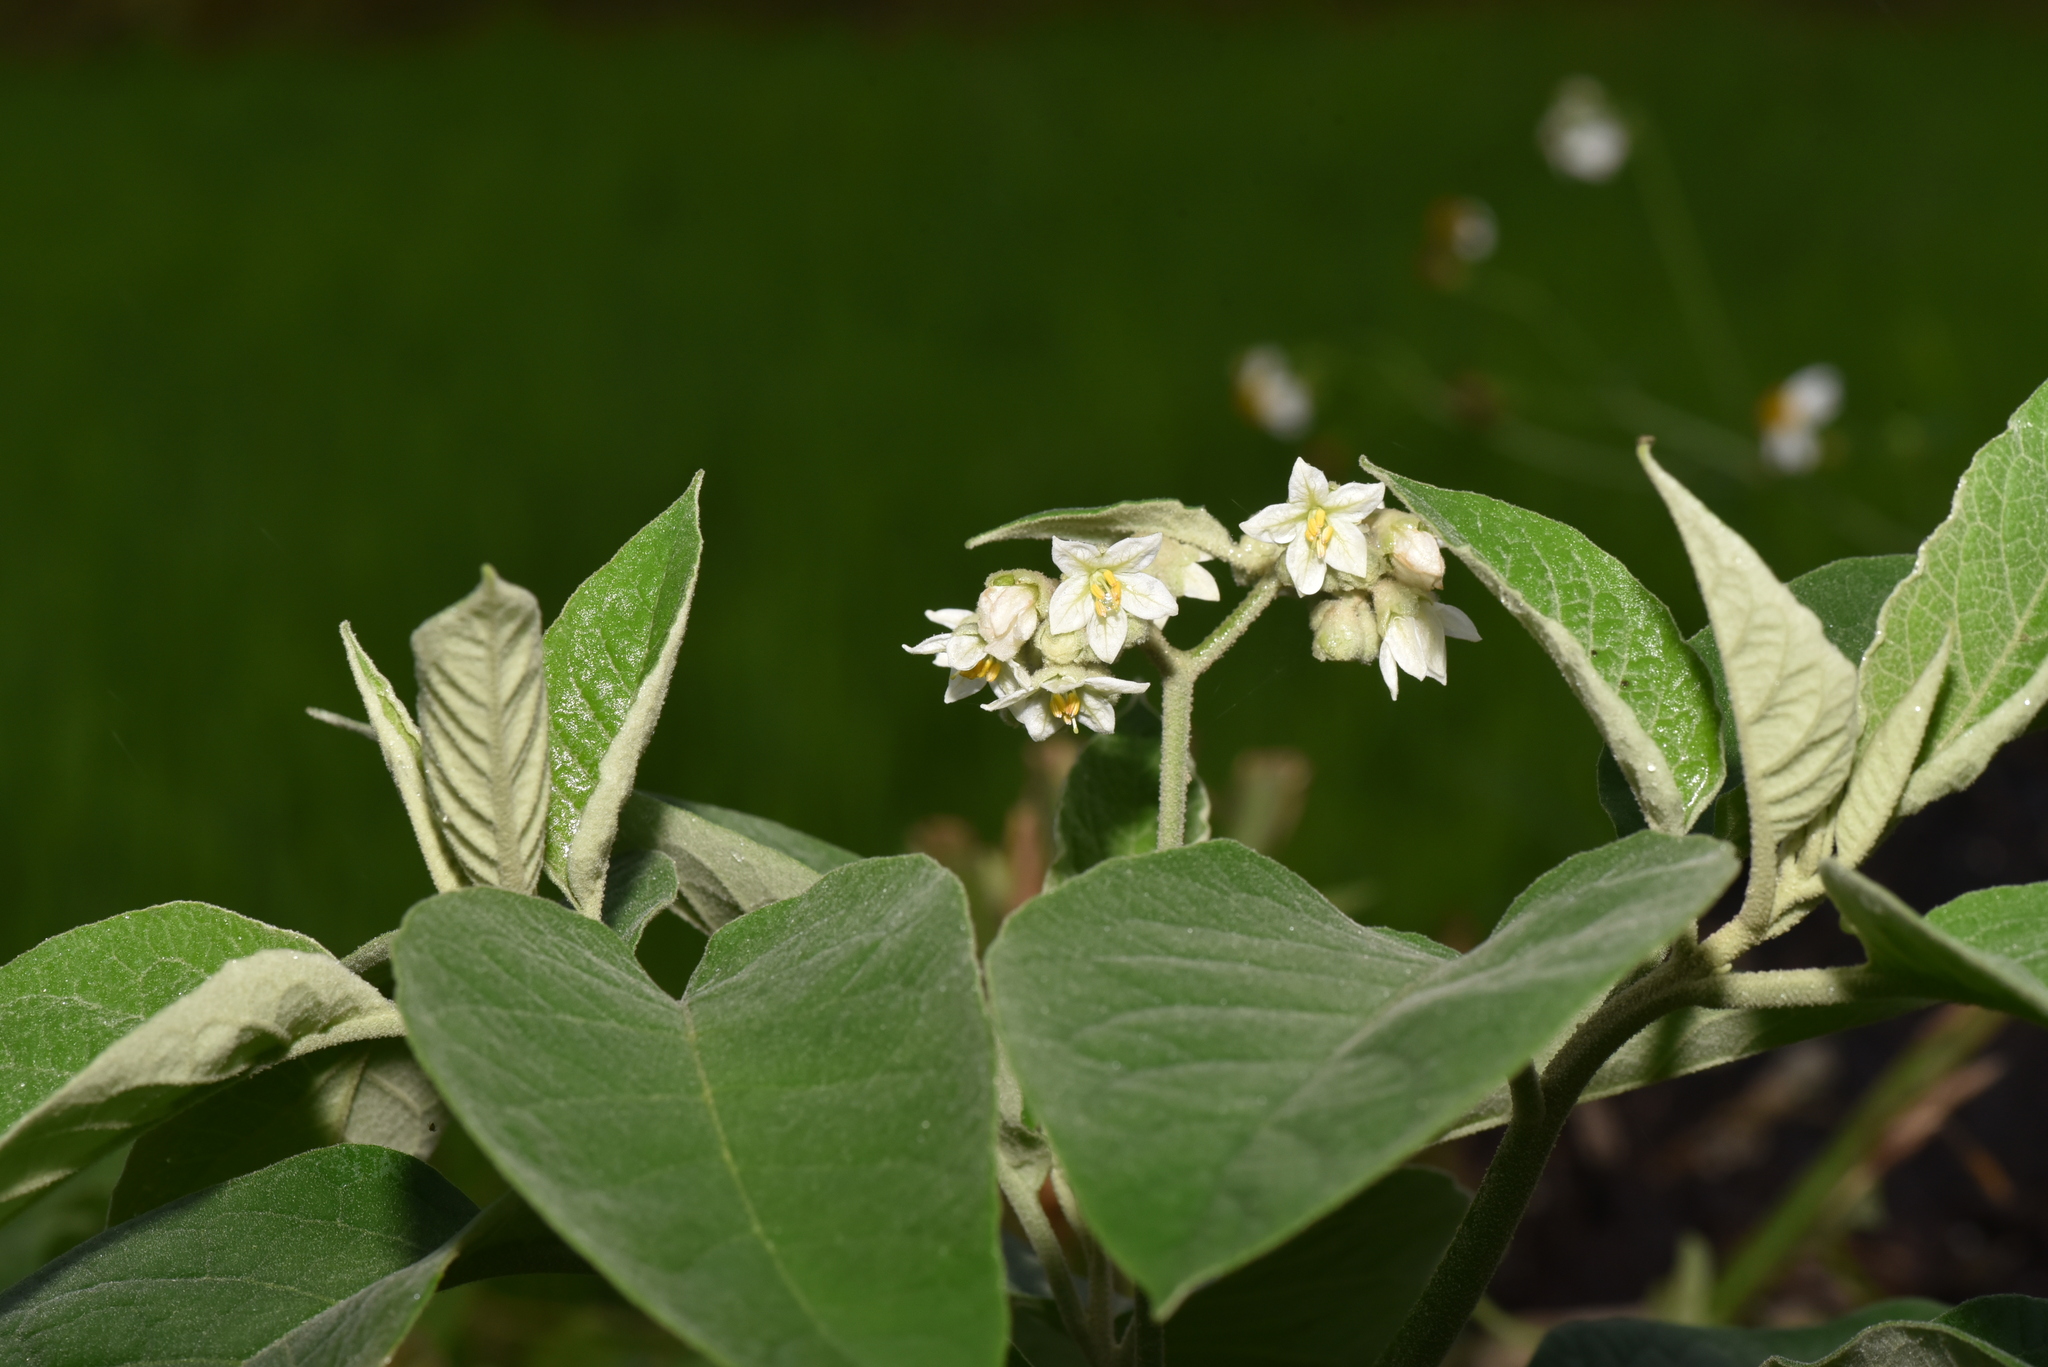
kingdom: Plantae
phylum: Tracheophyta
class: Magnoliopsida
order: Solanales
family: Solanaceae
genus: Solanum
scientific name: Solanum erianthum
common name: Tobacco-tree
